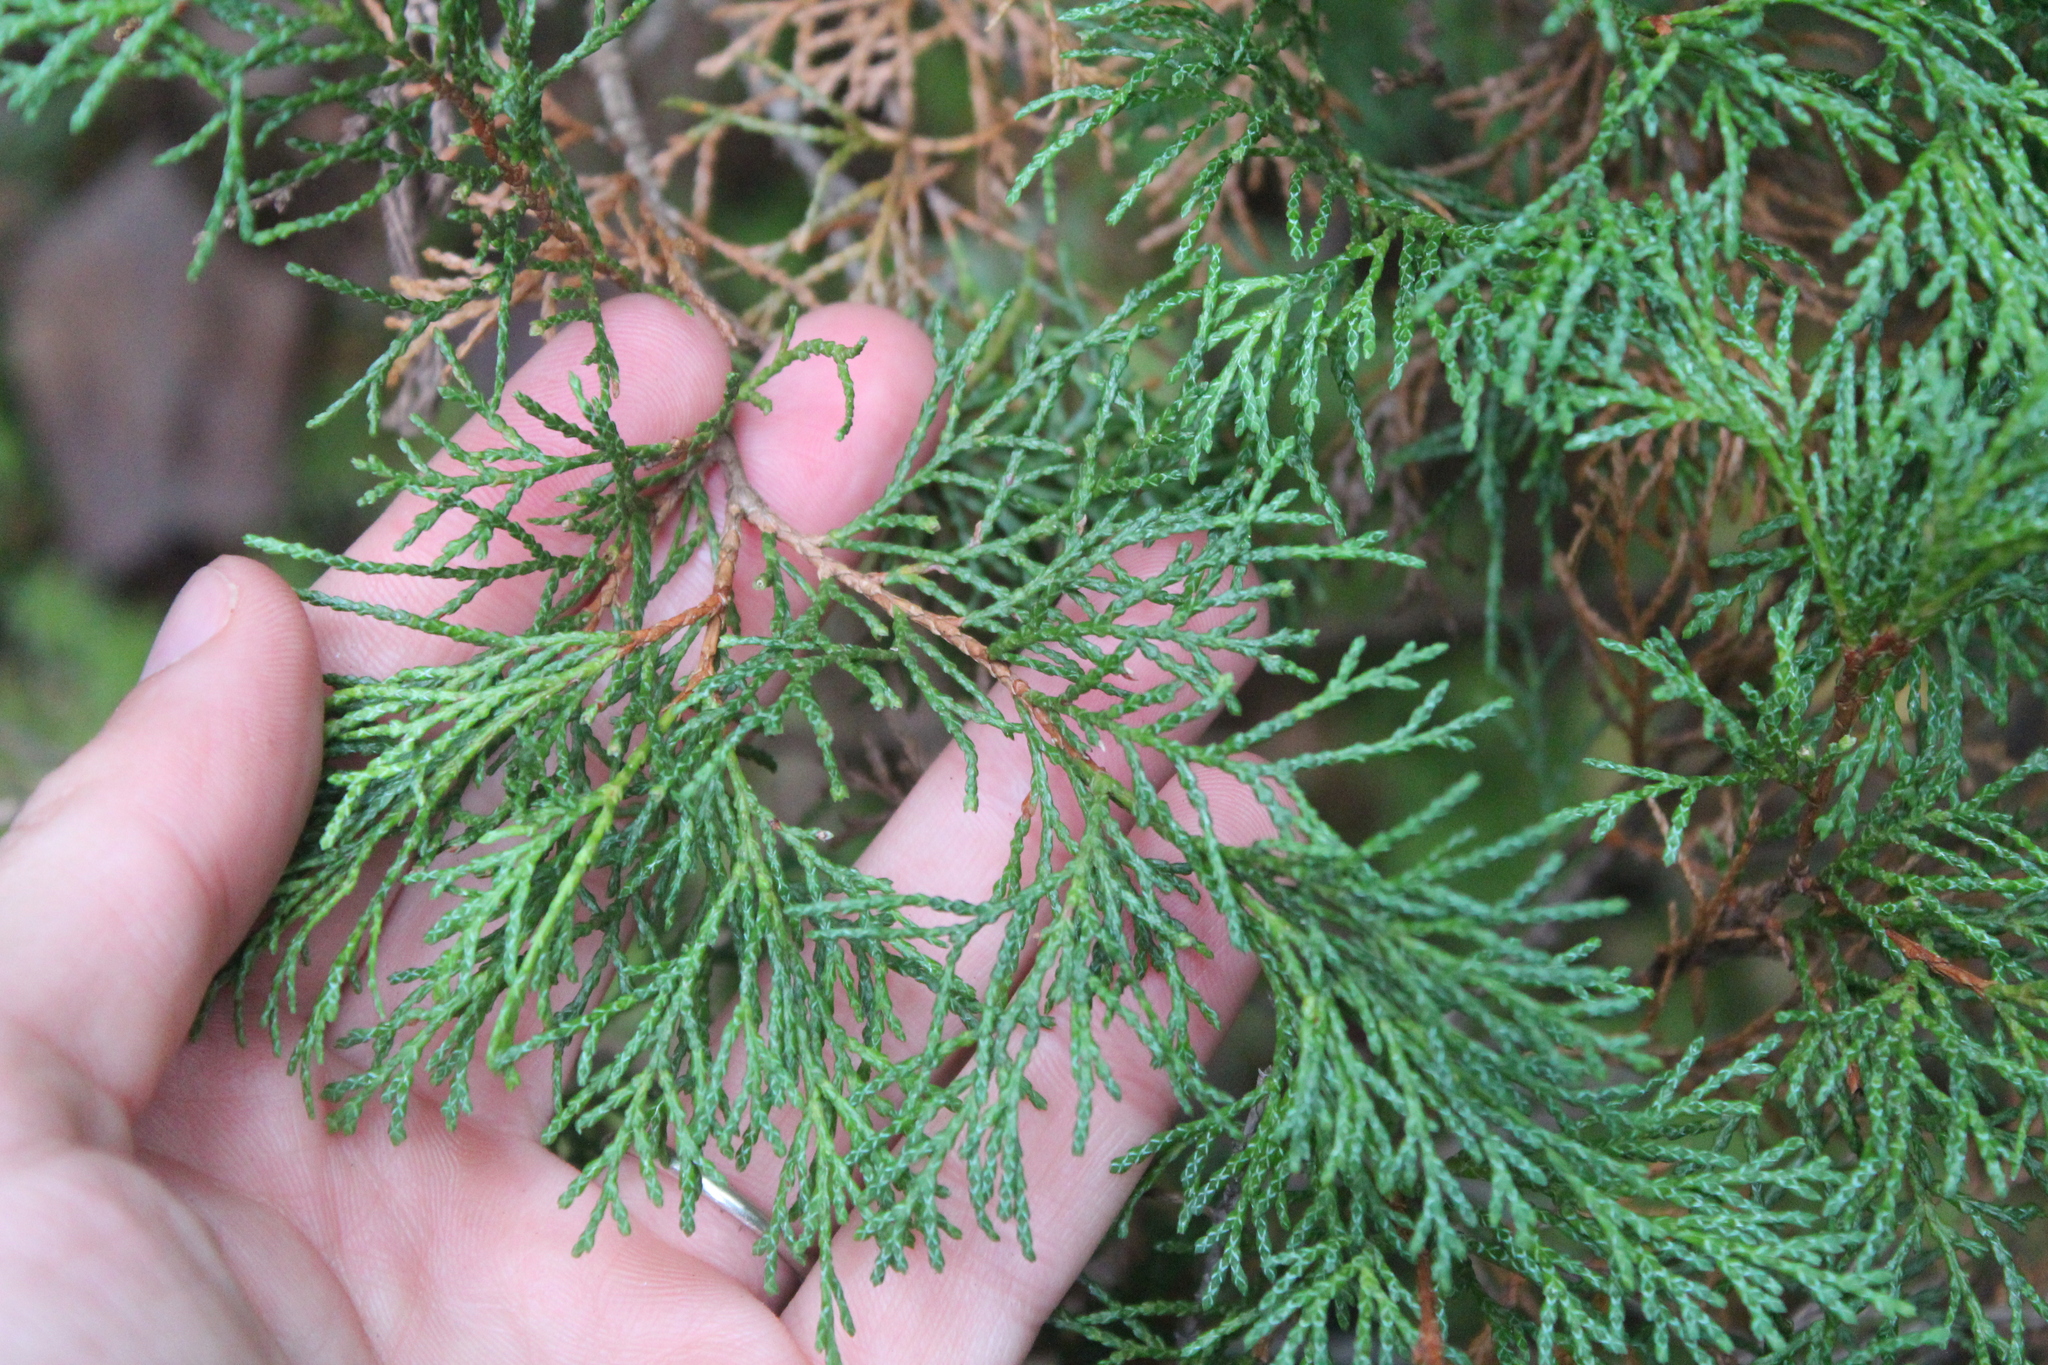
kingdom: Plantae
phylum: Tracheophyta
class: Pinopsida
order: Pinales
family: Cupressaceae
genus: Chamaecyparis
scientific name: Chamaecyparis thyoides
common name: Atlantic white cedar
